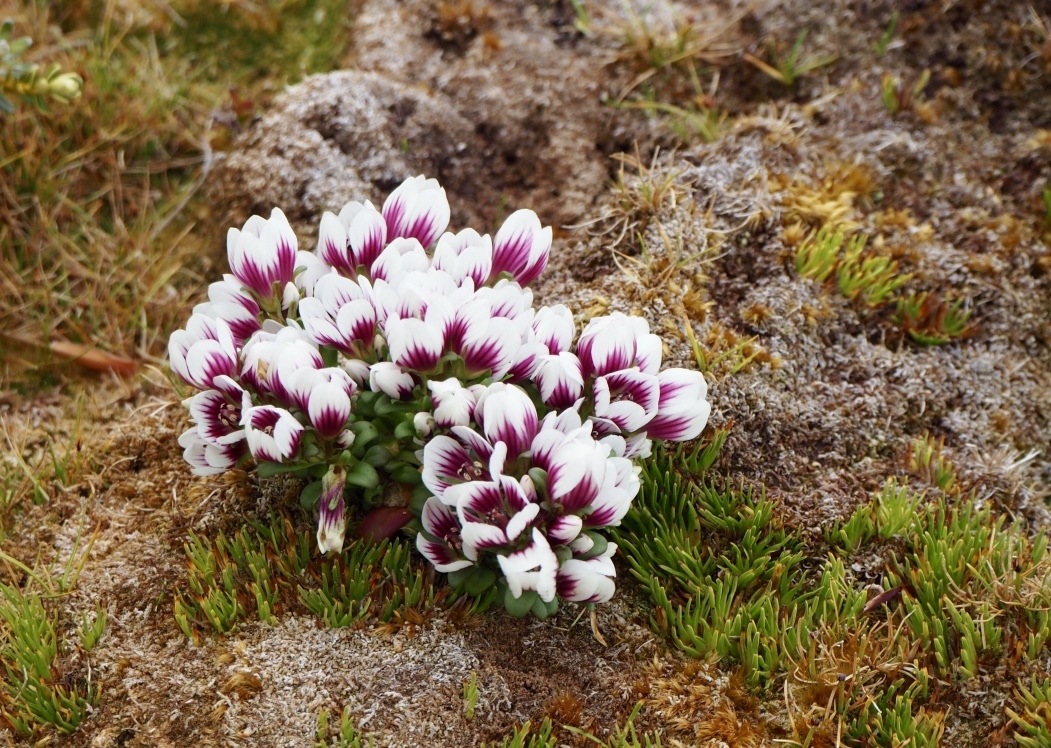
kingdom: Plantae
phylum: Tracheophyta
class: Magnoliopsida
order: Gentianales
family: Gentianaceae
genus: Gentianella
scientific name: Gentianella concinna
